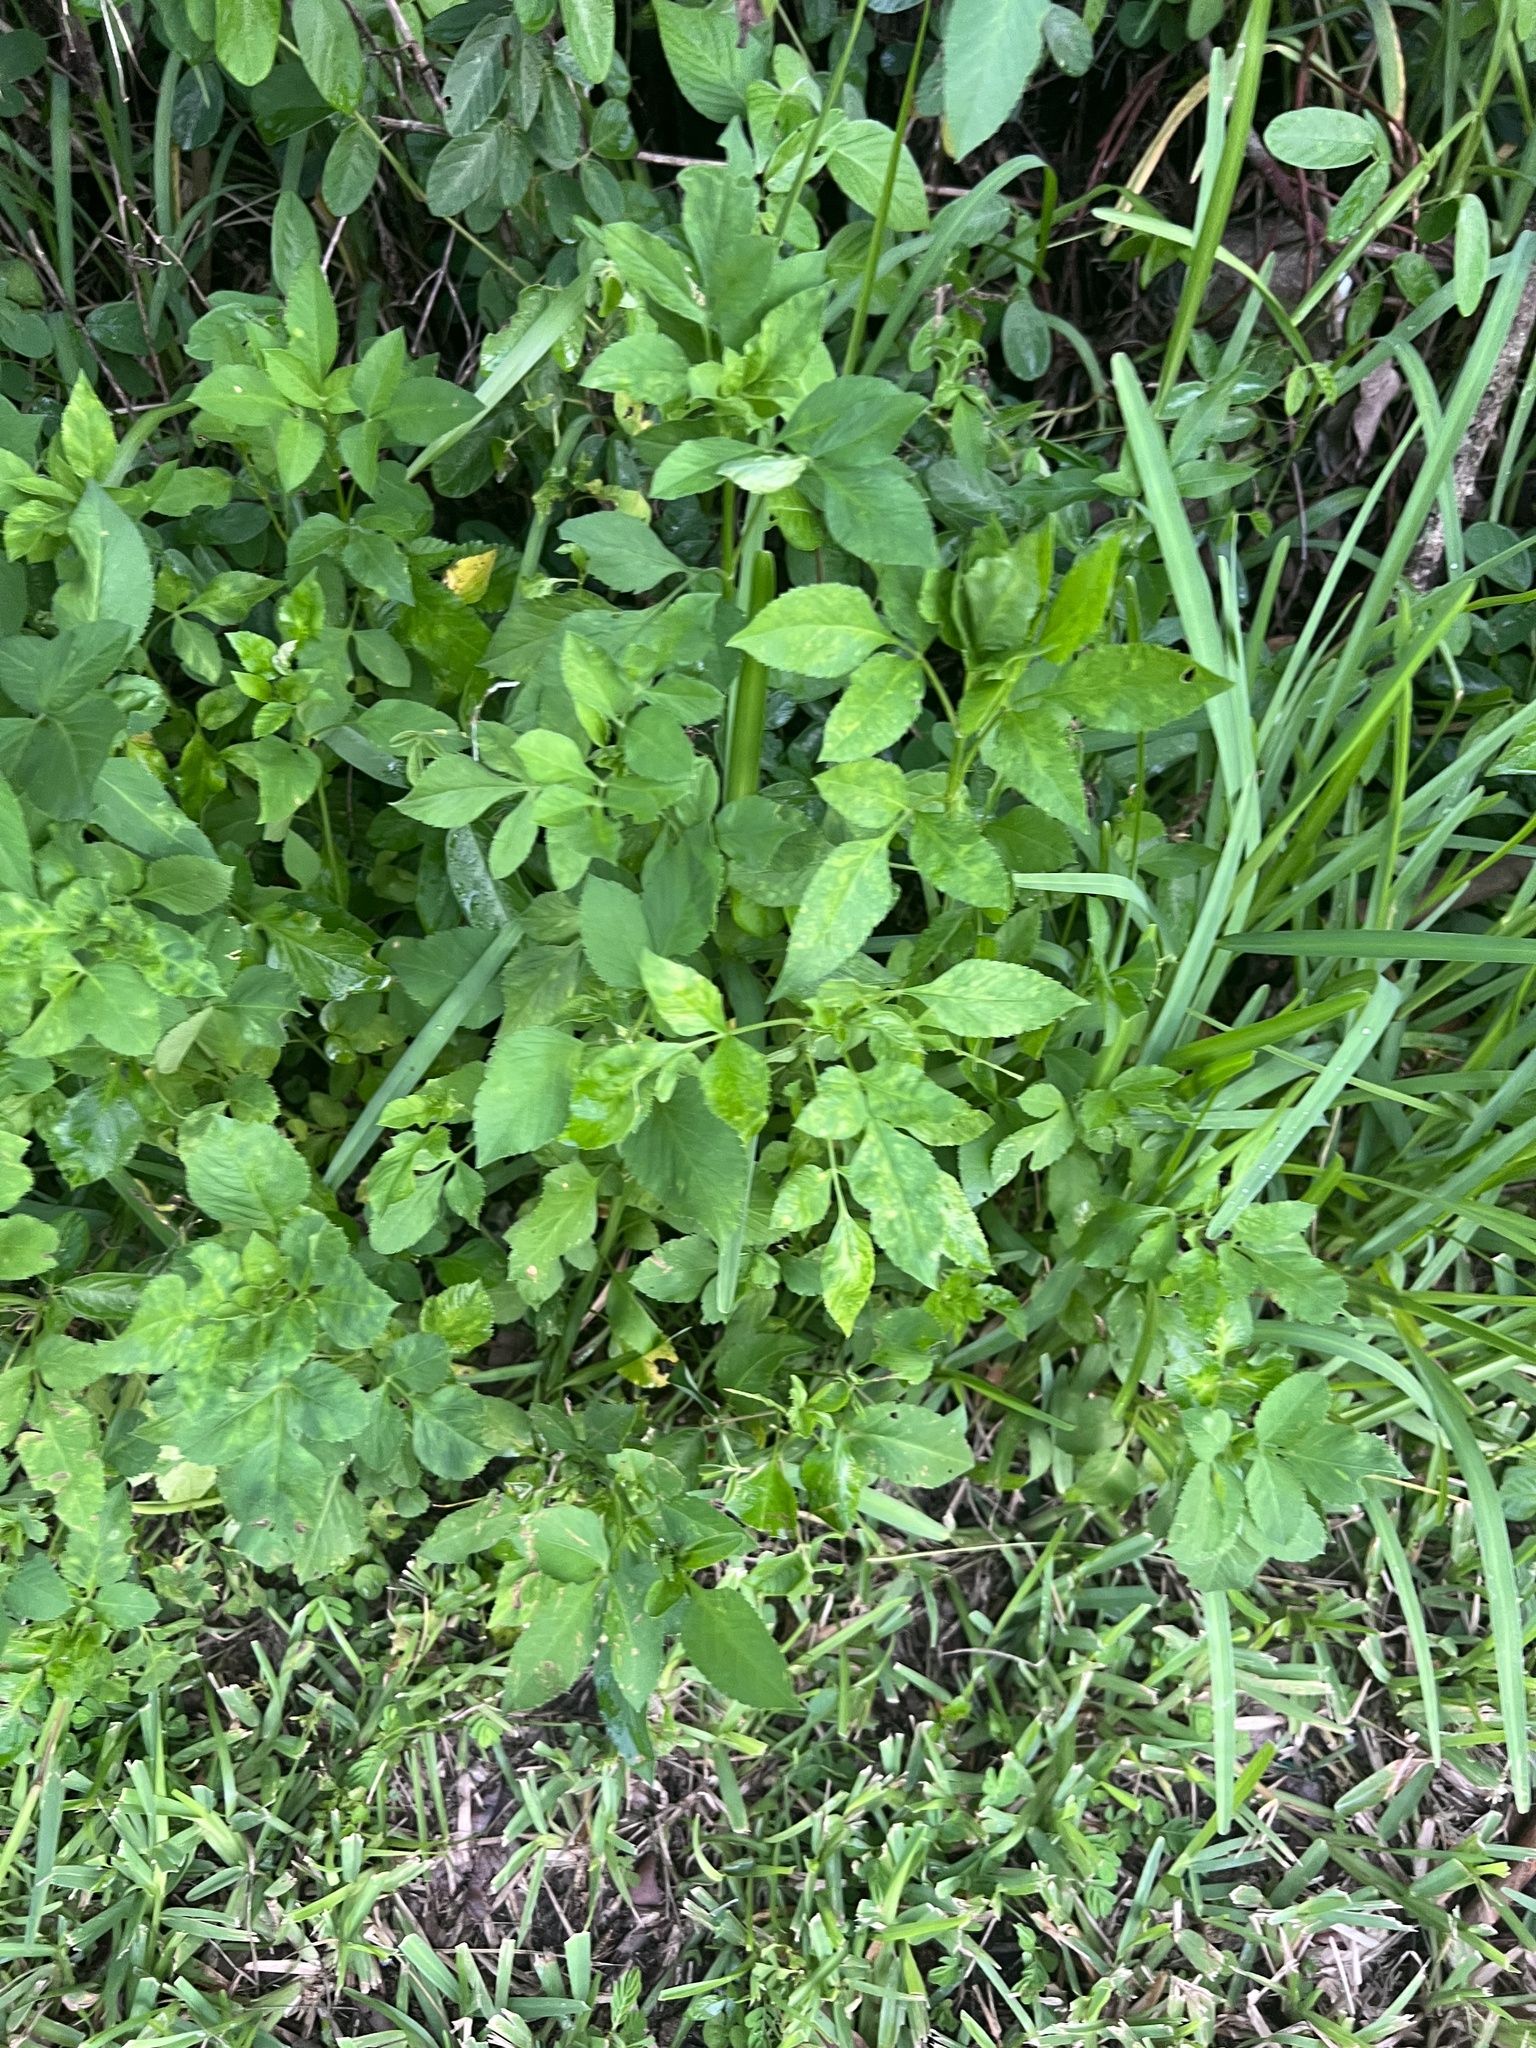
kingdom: Plantae
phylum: Tracheophyta
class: Magnoliopsida
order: Asterales
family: Asteraceae
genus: Bidens
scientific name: Bidens alba
